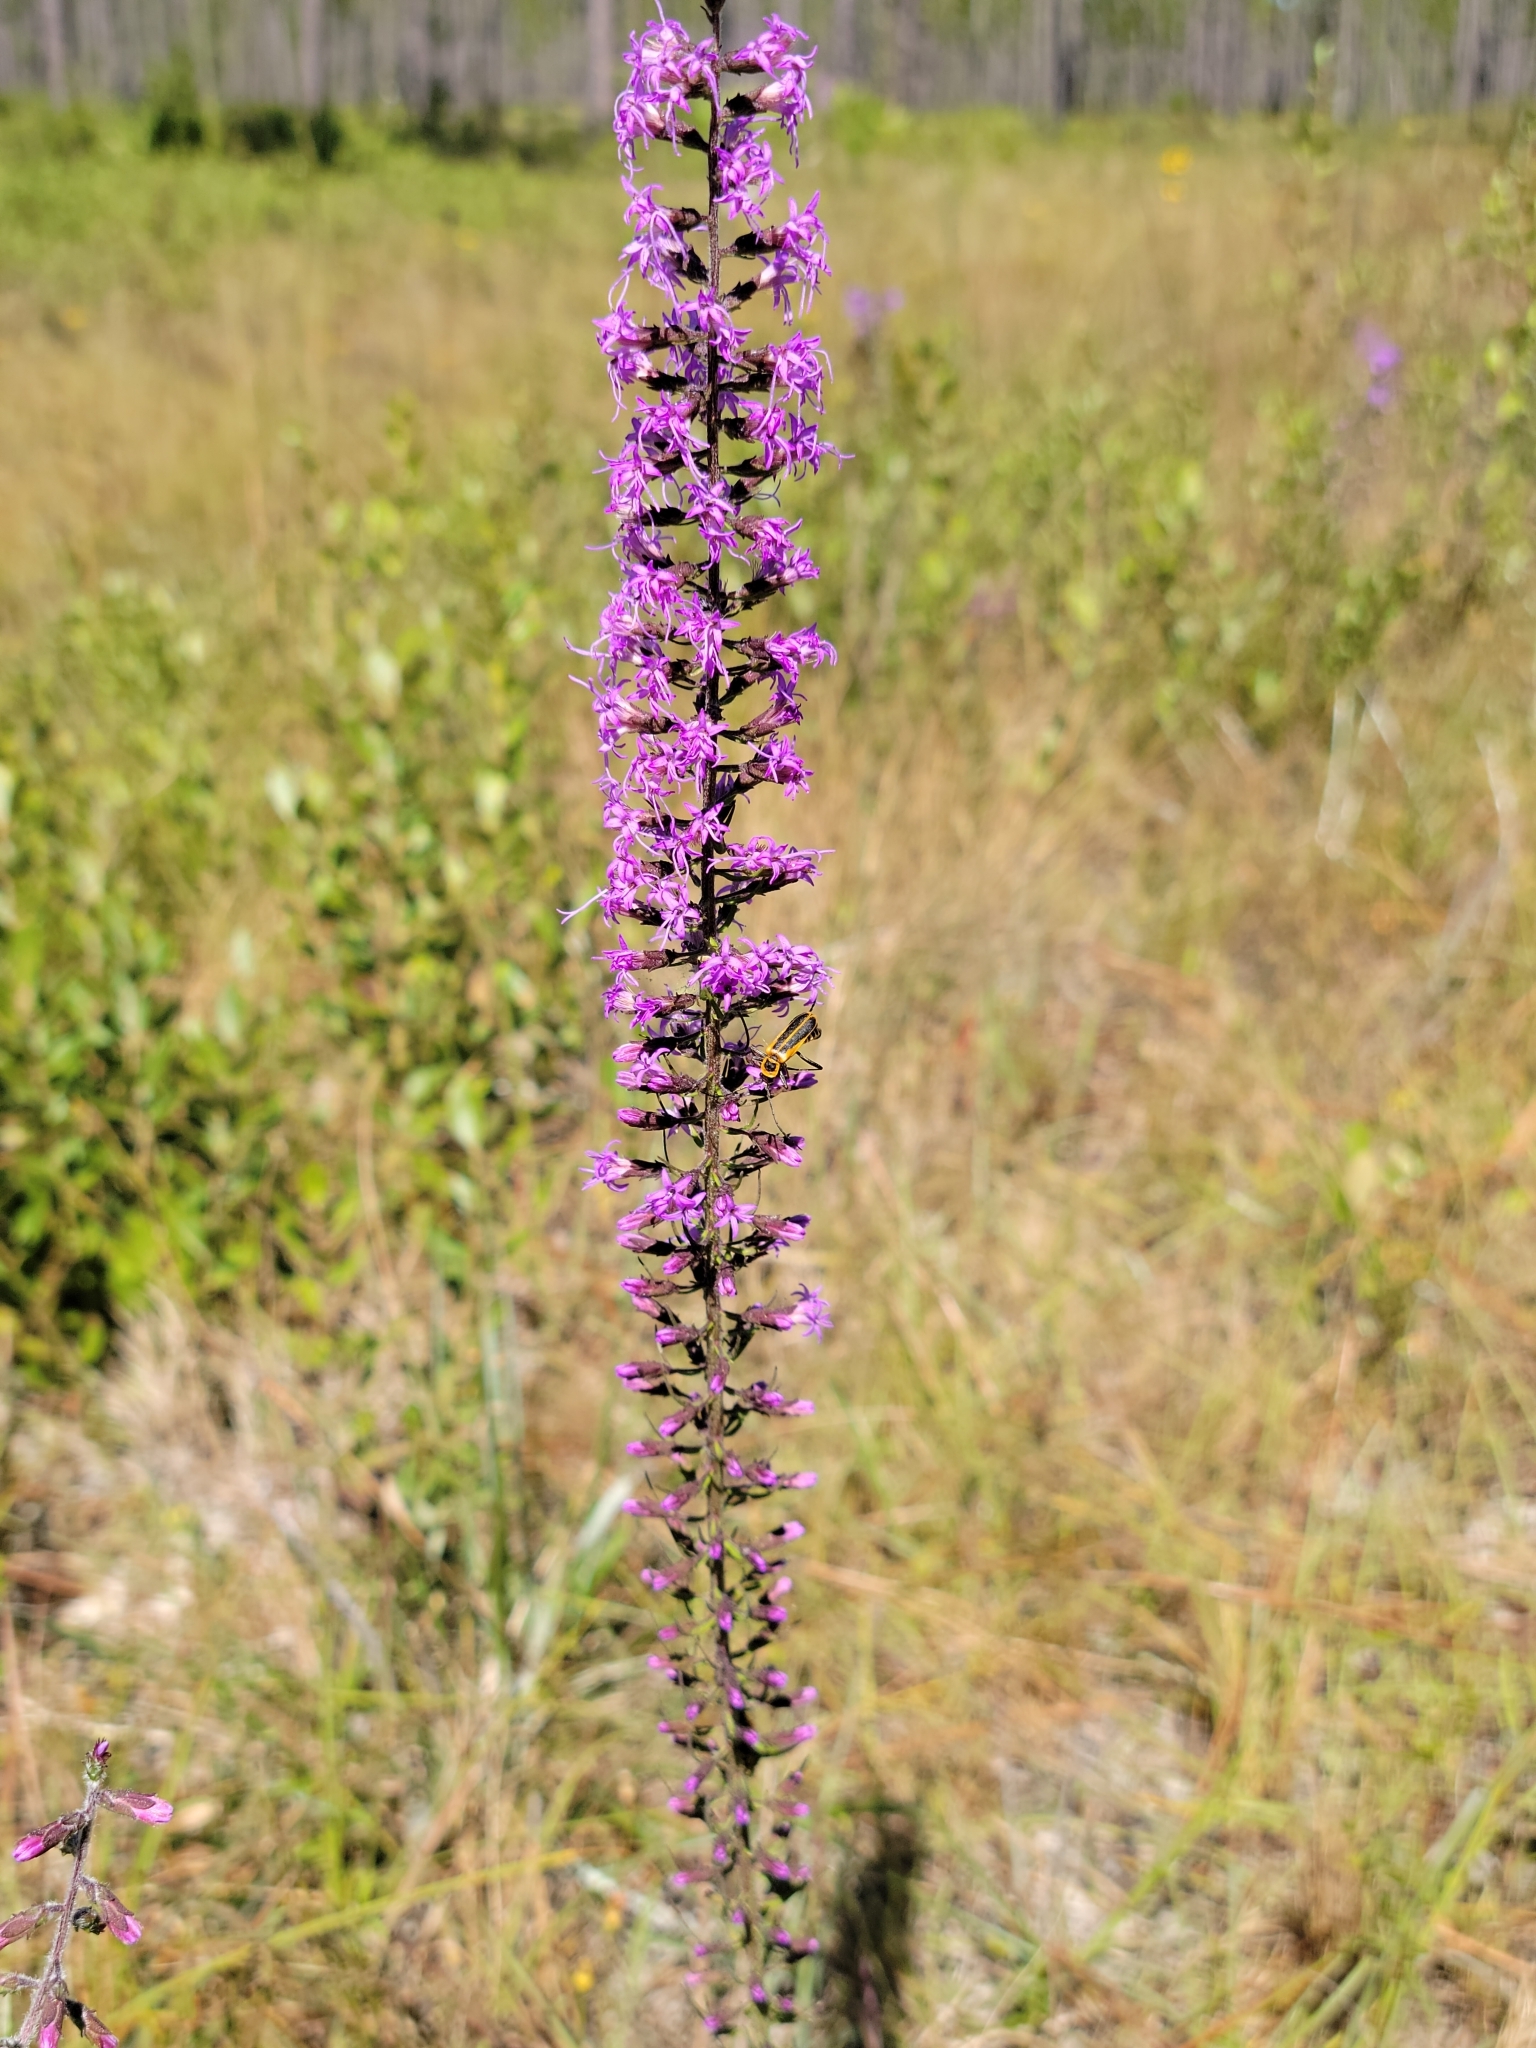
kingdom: Plantae
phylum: Tracheophyta
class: Magnoliopsida
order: Asterales
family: Asteraceae
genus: Liatris
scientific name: Liatris gracilis
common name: Slender gayfeather
